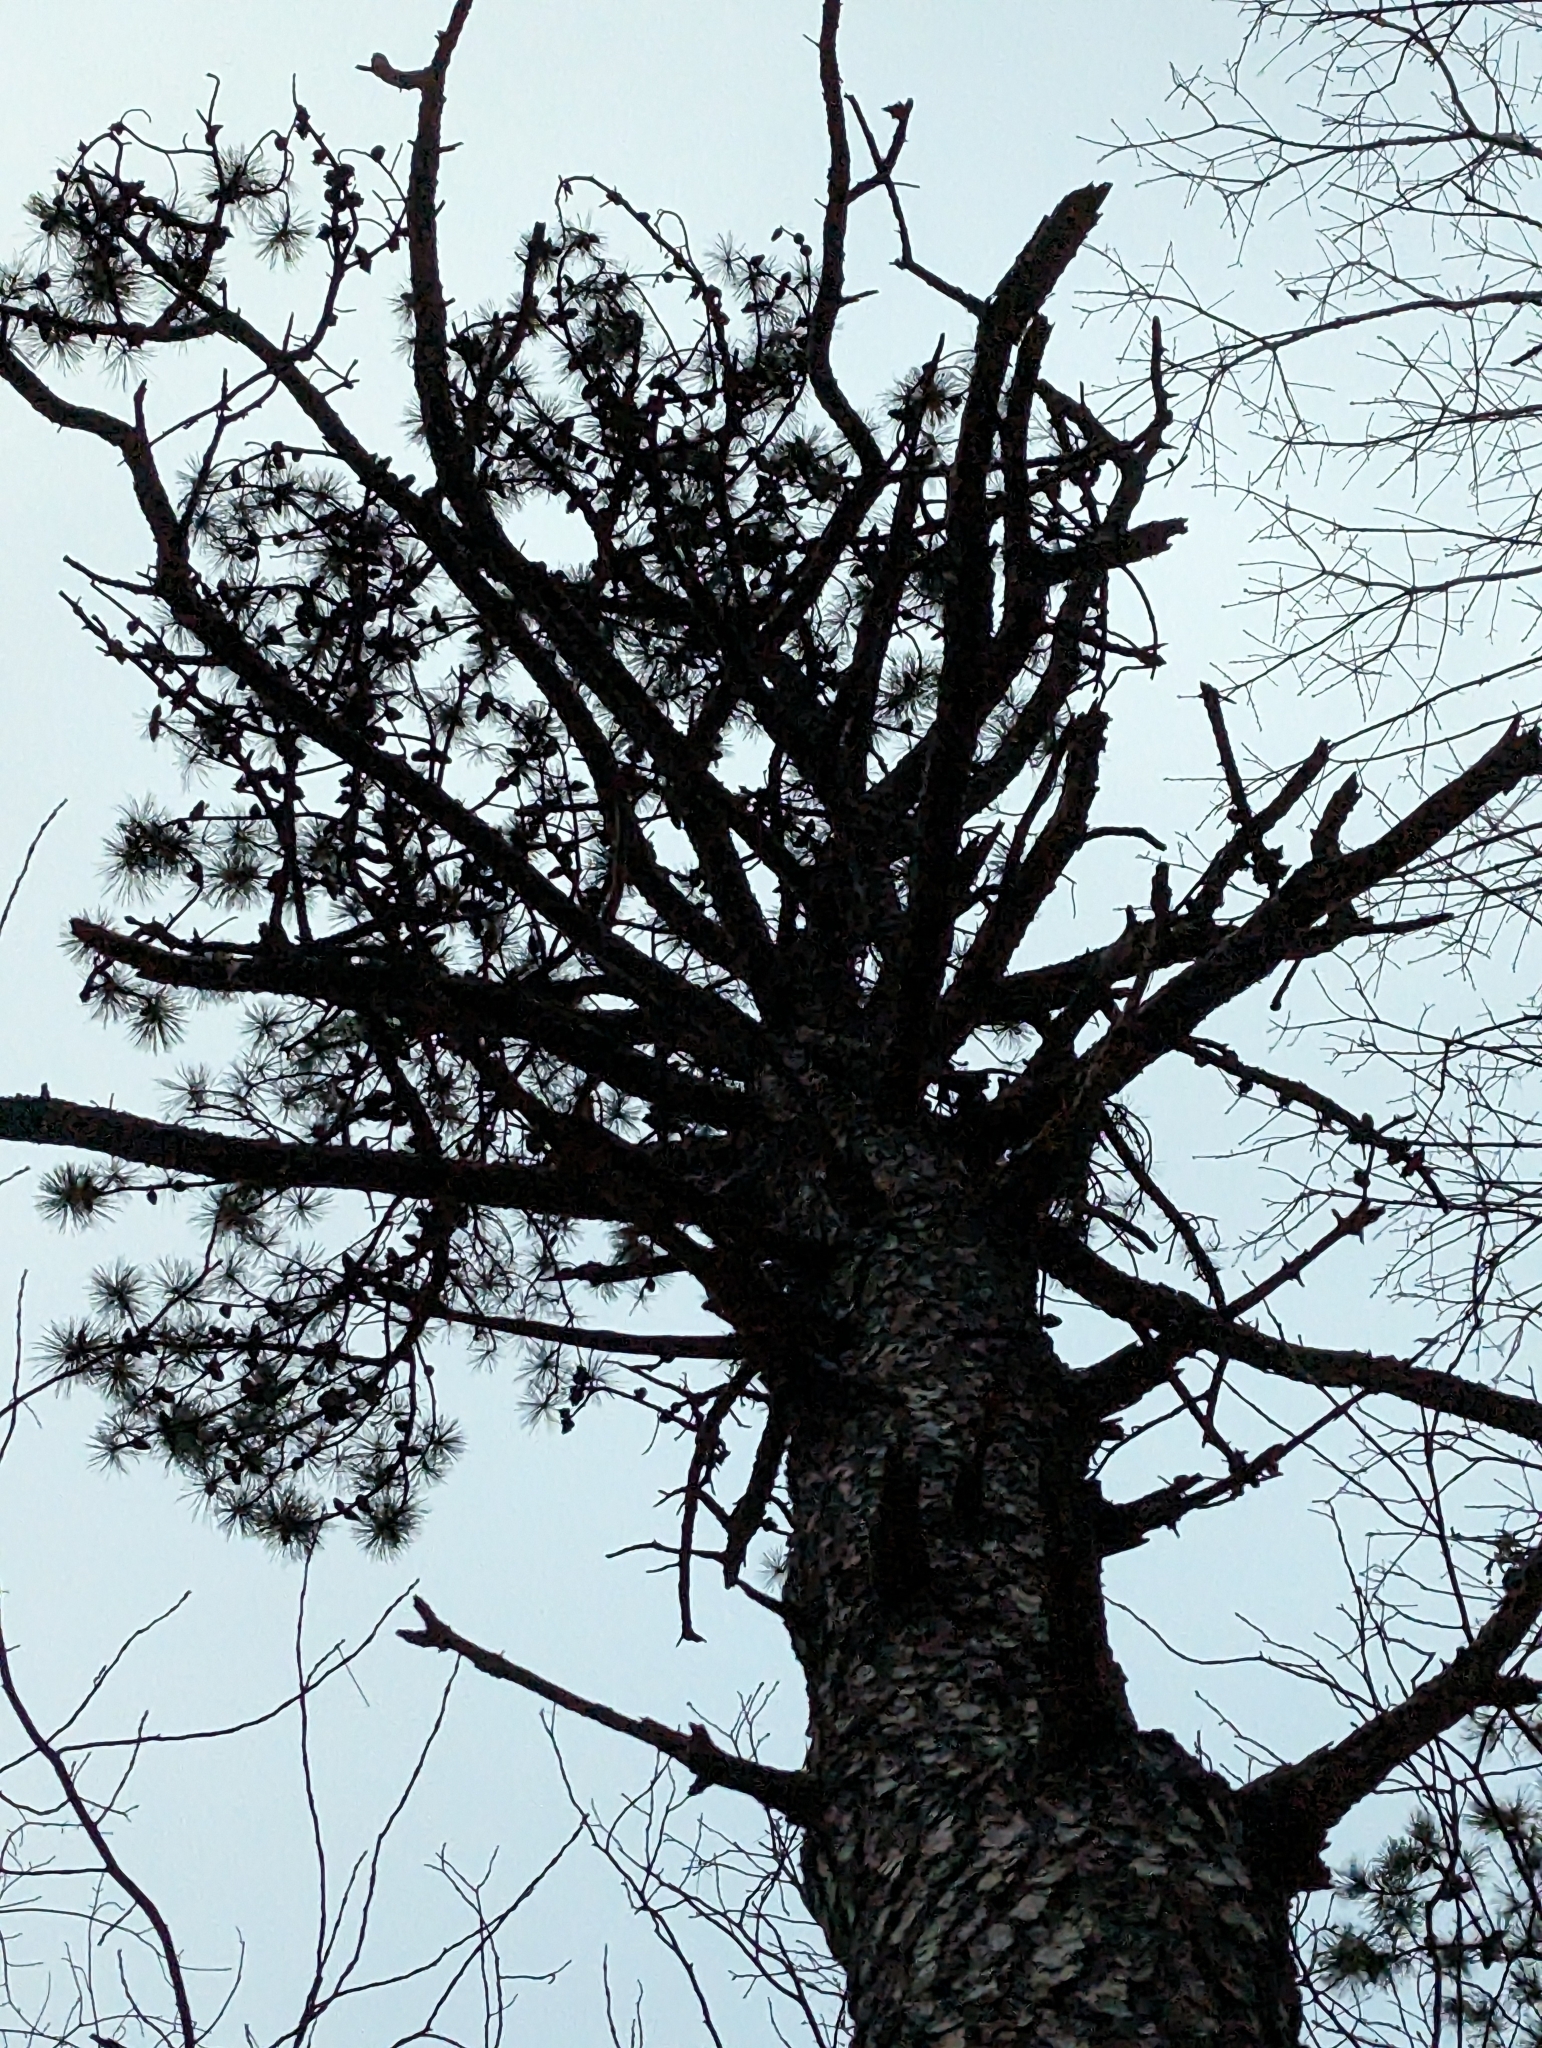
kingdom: Plantae
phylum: Tracheophyta
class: Pinopsida
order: Pinales
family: Pinaceae
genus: Pinus
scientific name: Pinus rigida
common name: Pitch pine
